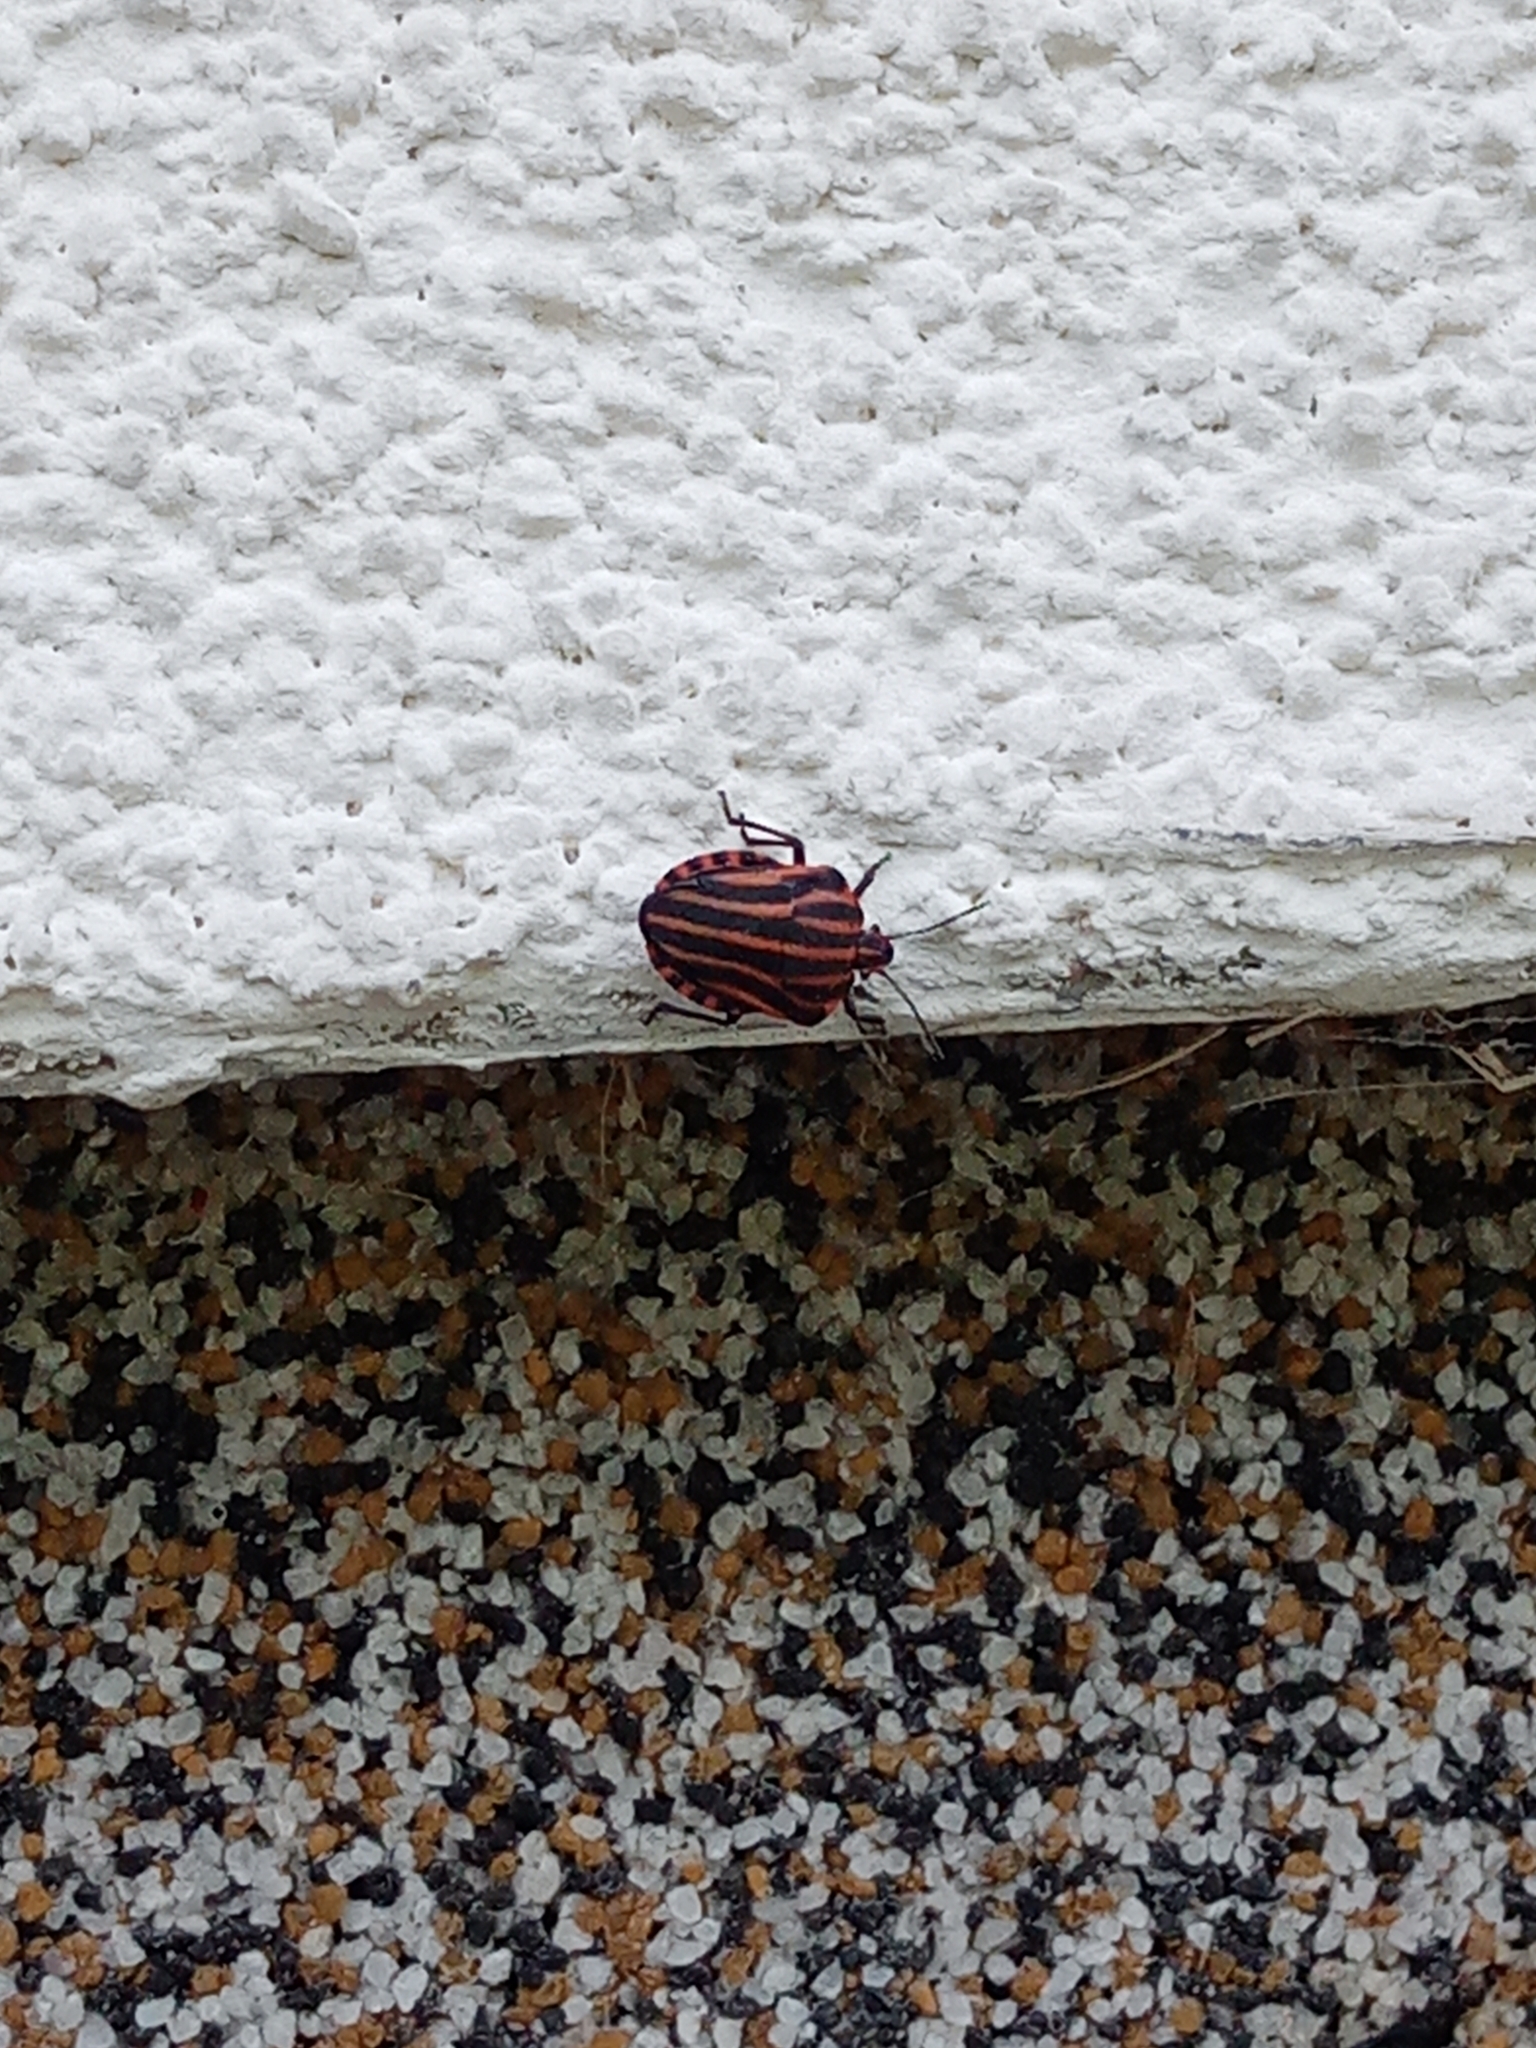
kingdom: Animalia
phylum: Arthropoda
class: Insecta
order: Hemiptera
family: Pentatomidae
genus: Graphosoma
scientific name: Graphosoma italicum
